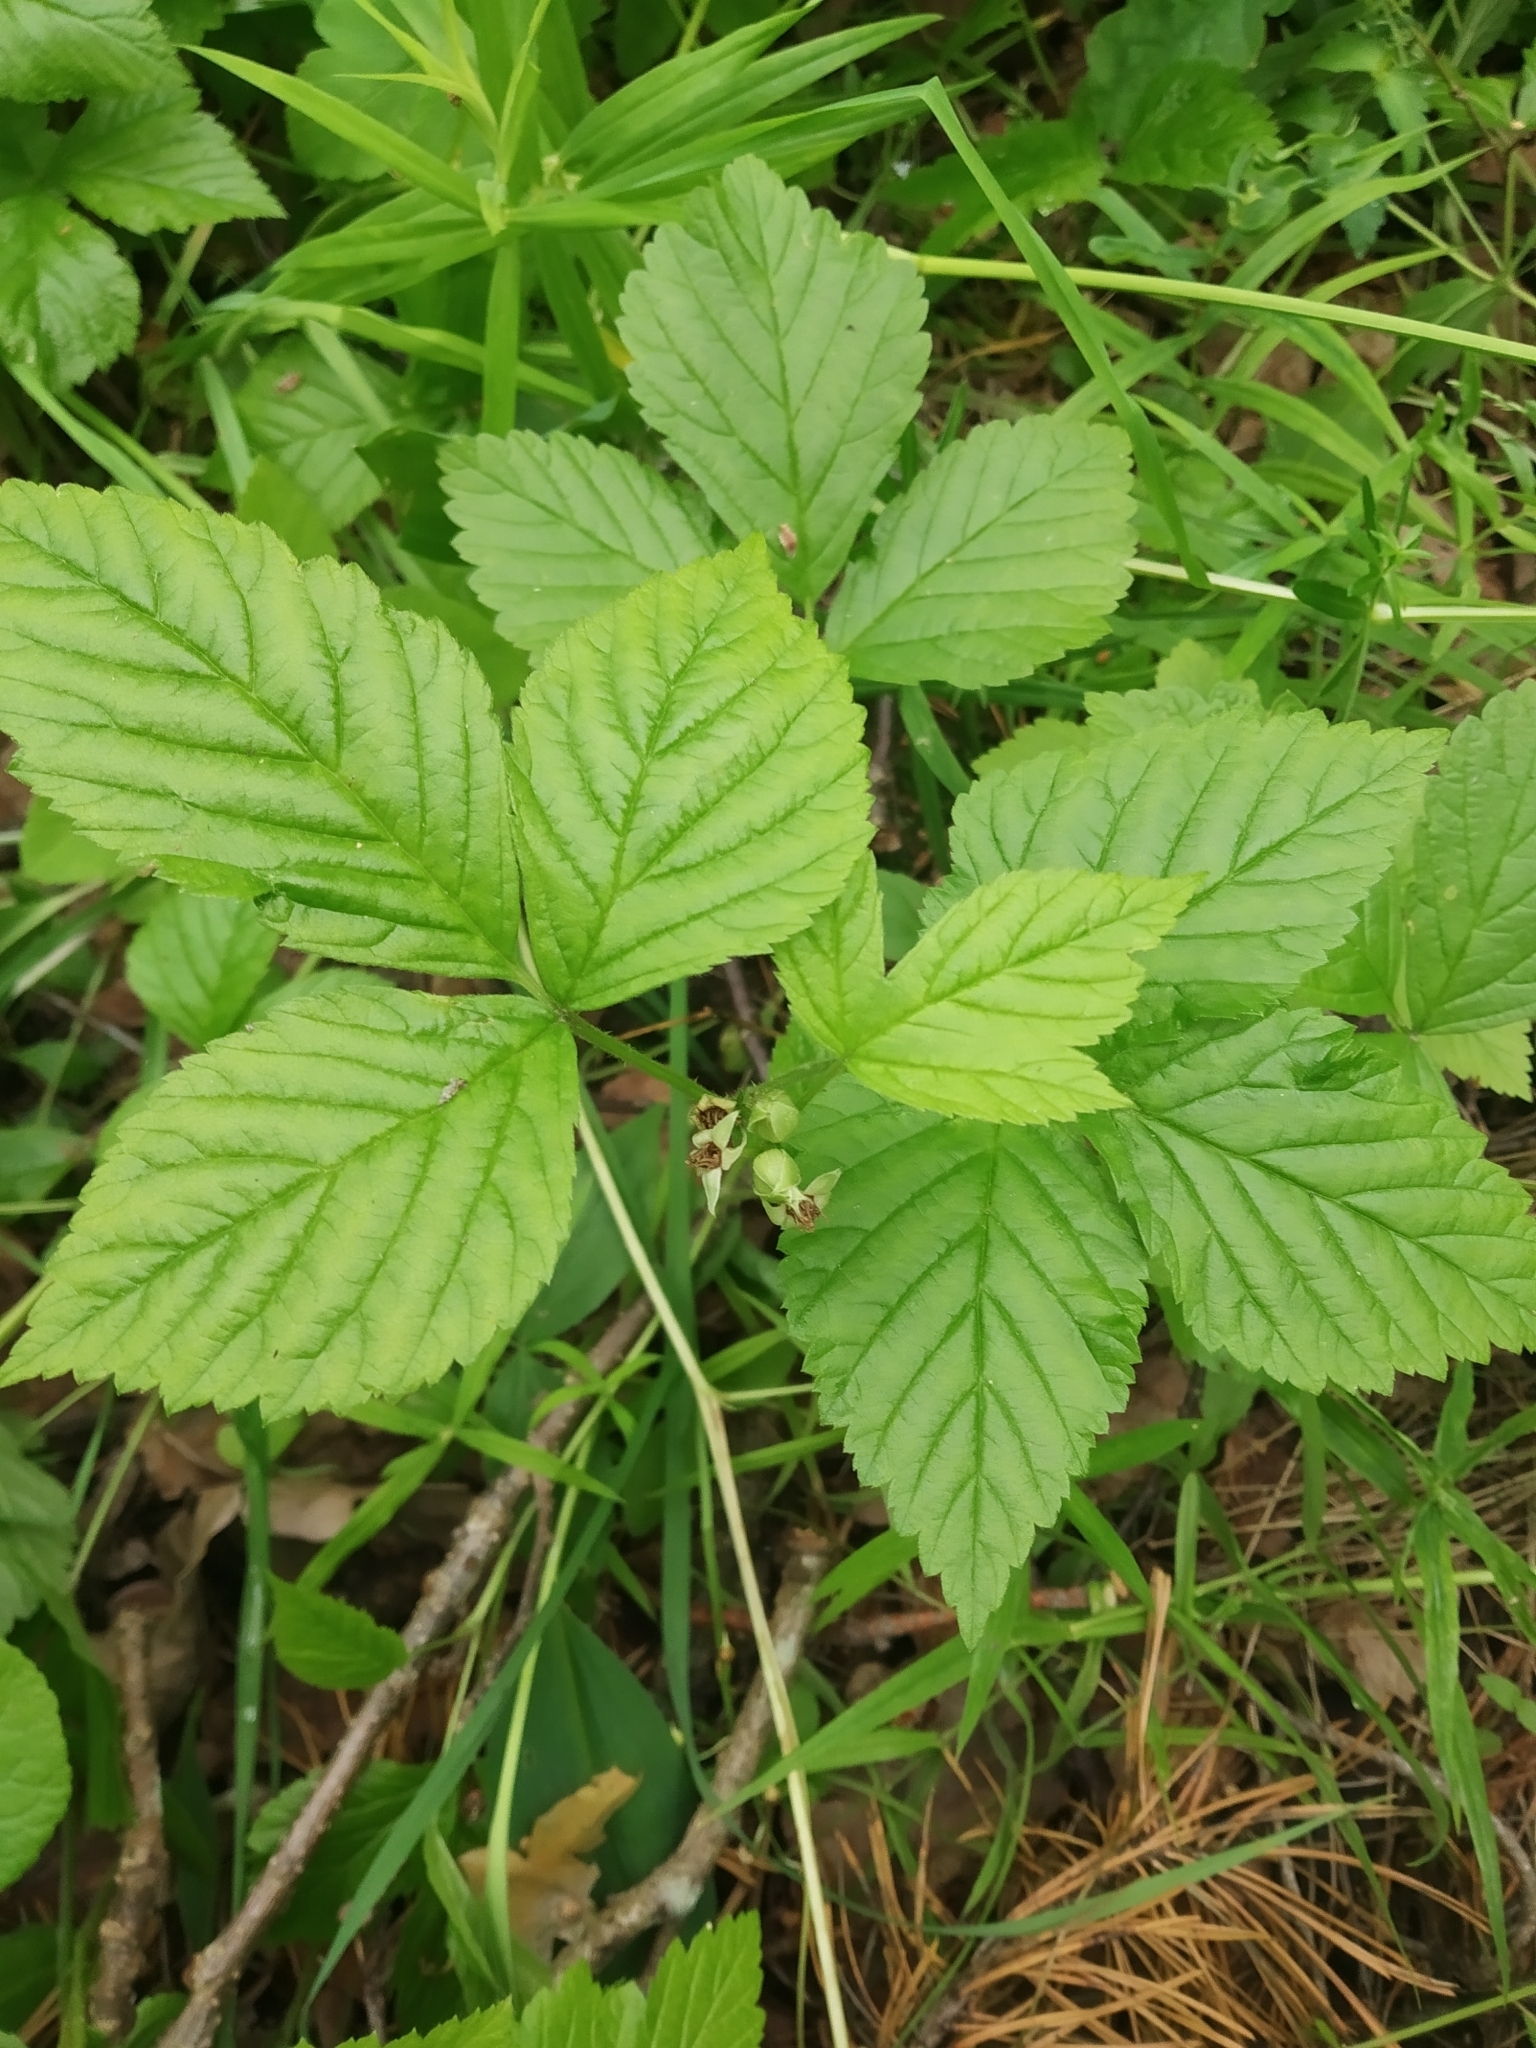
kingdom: Plantae
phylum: Tracheophyta
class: Magnoliopsida
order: Rosales
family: Rosaceae
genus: Rubus
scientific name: Rubus saxatilis
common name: Stone bramble
